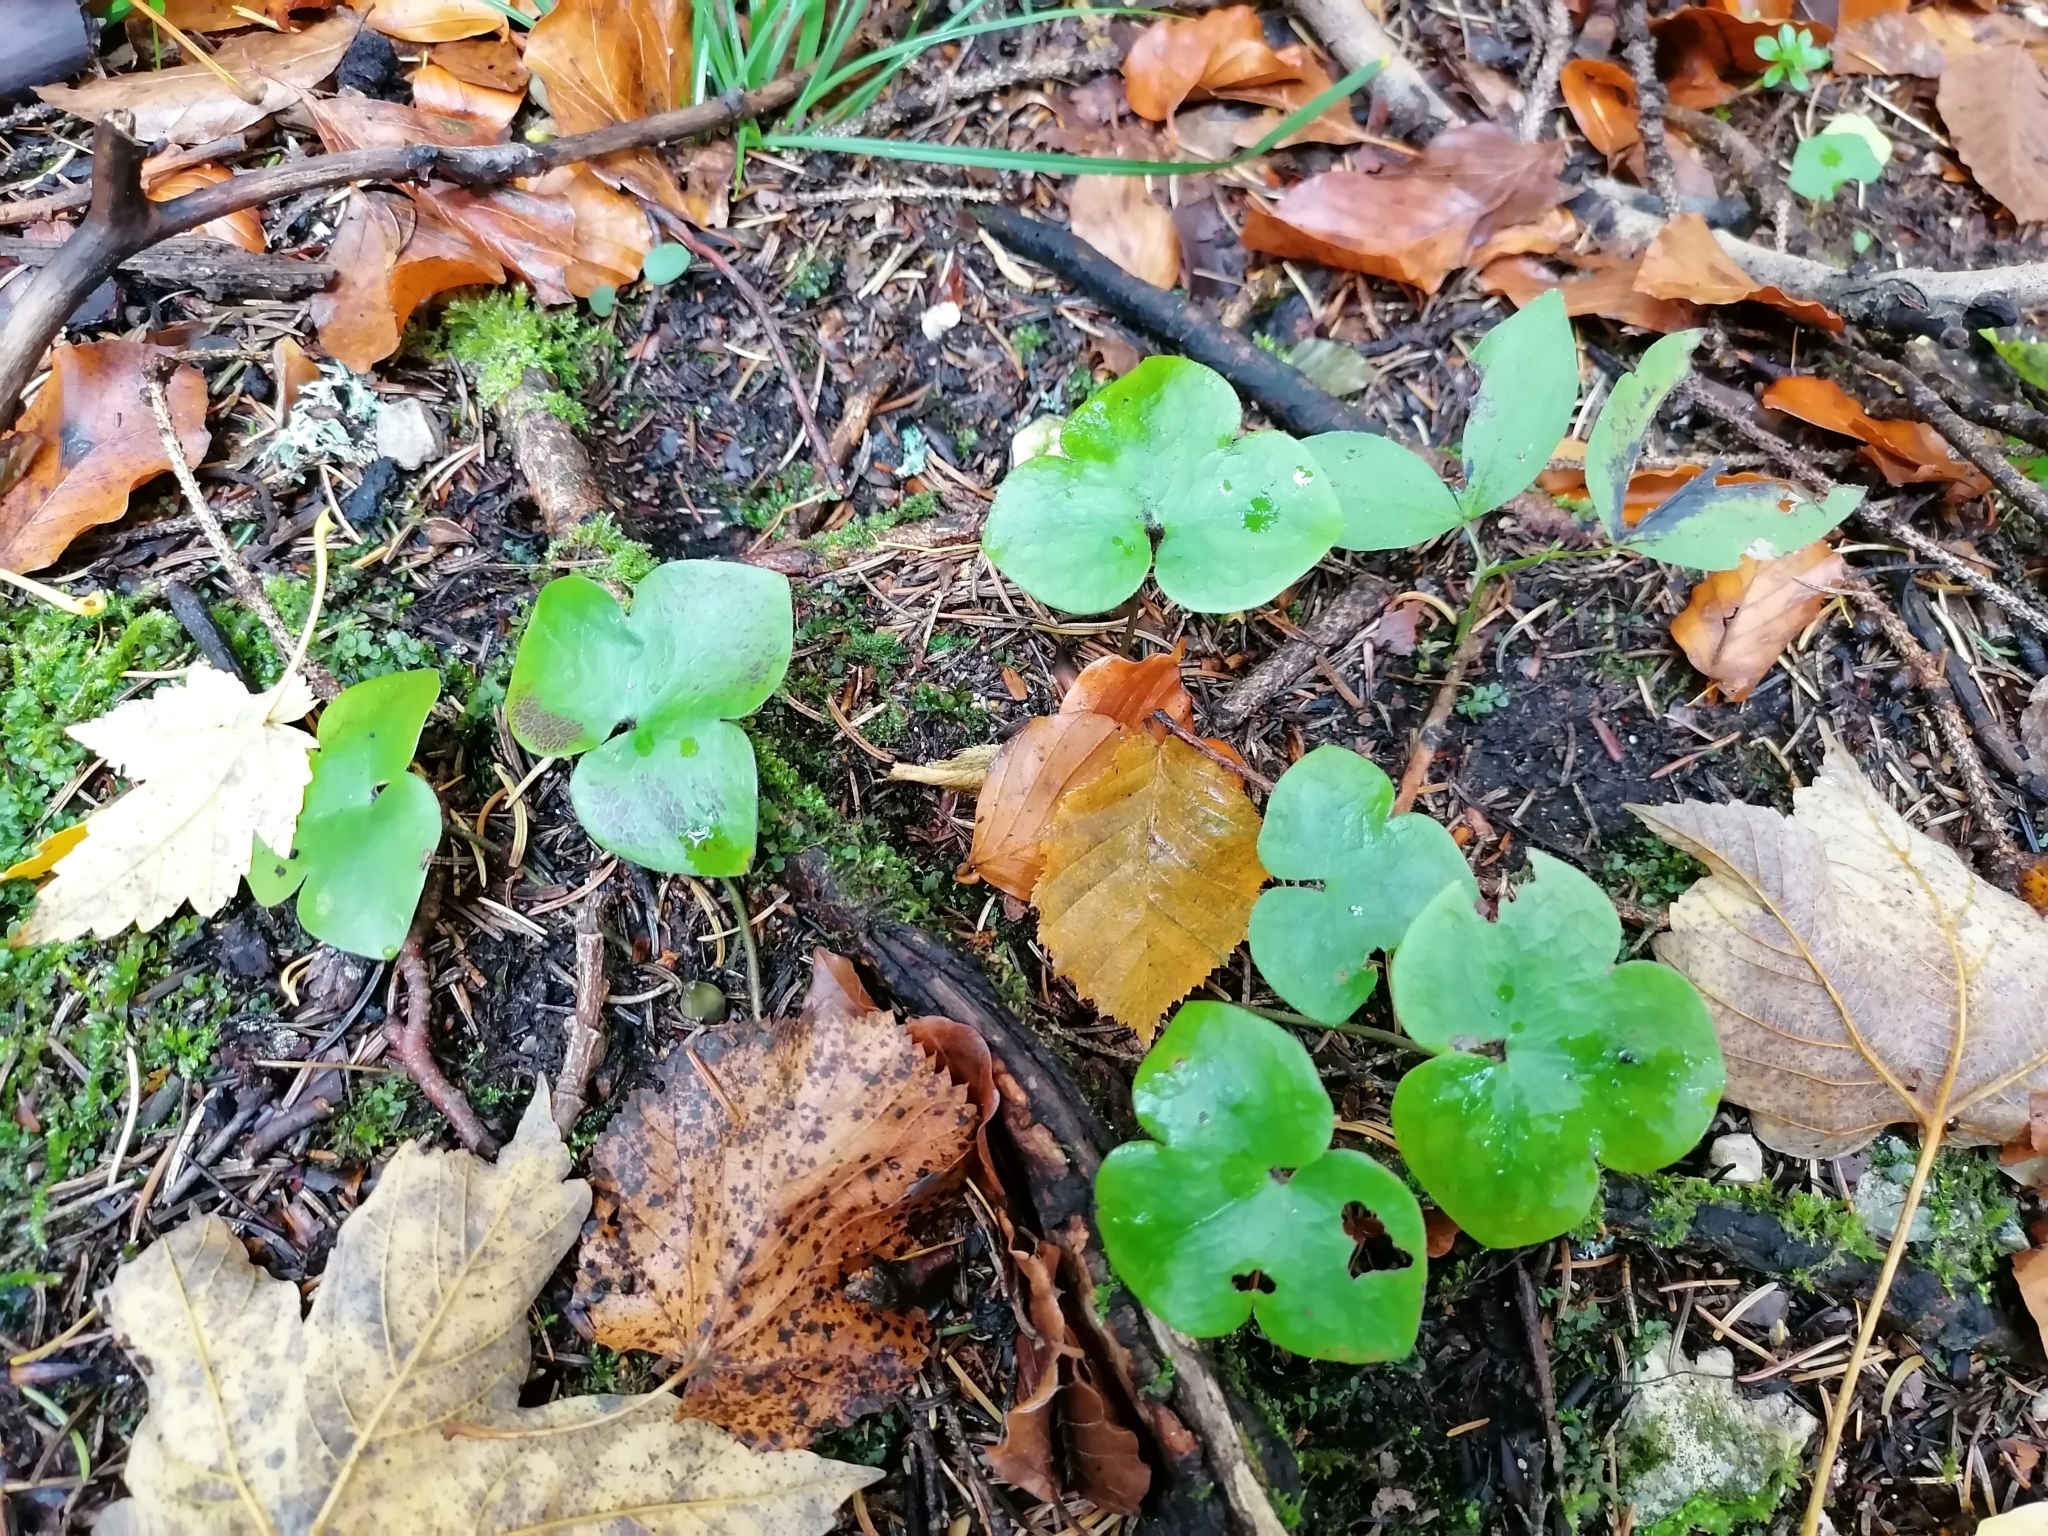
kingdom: Plantae
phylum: Tracheophyta
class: Magnoliopsida
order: Ranunculales
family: Ranunculaceae
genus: Hepatica
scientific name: Hepatica nobilis
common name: Liverleaf
